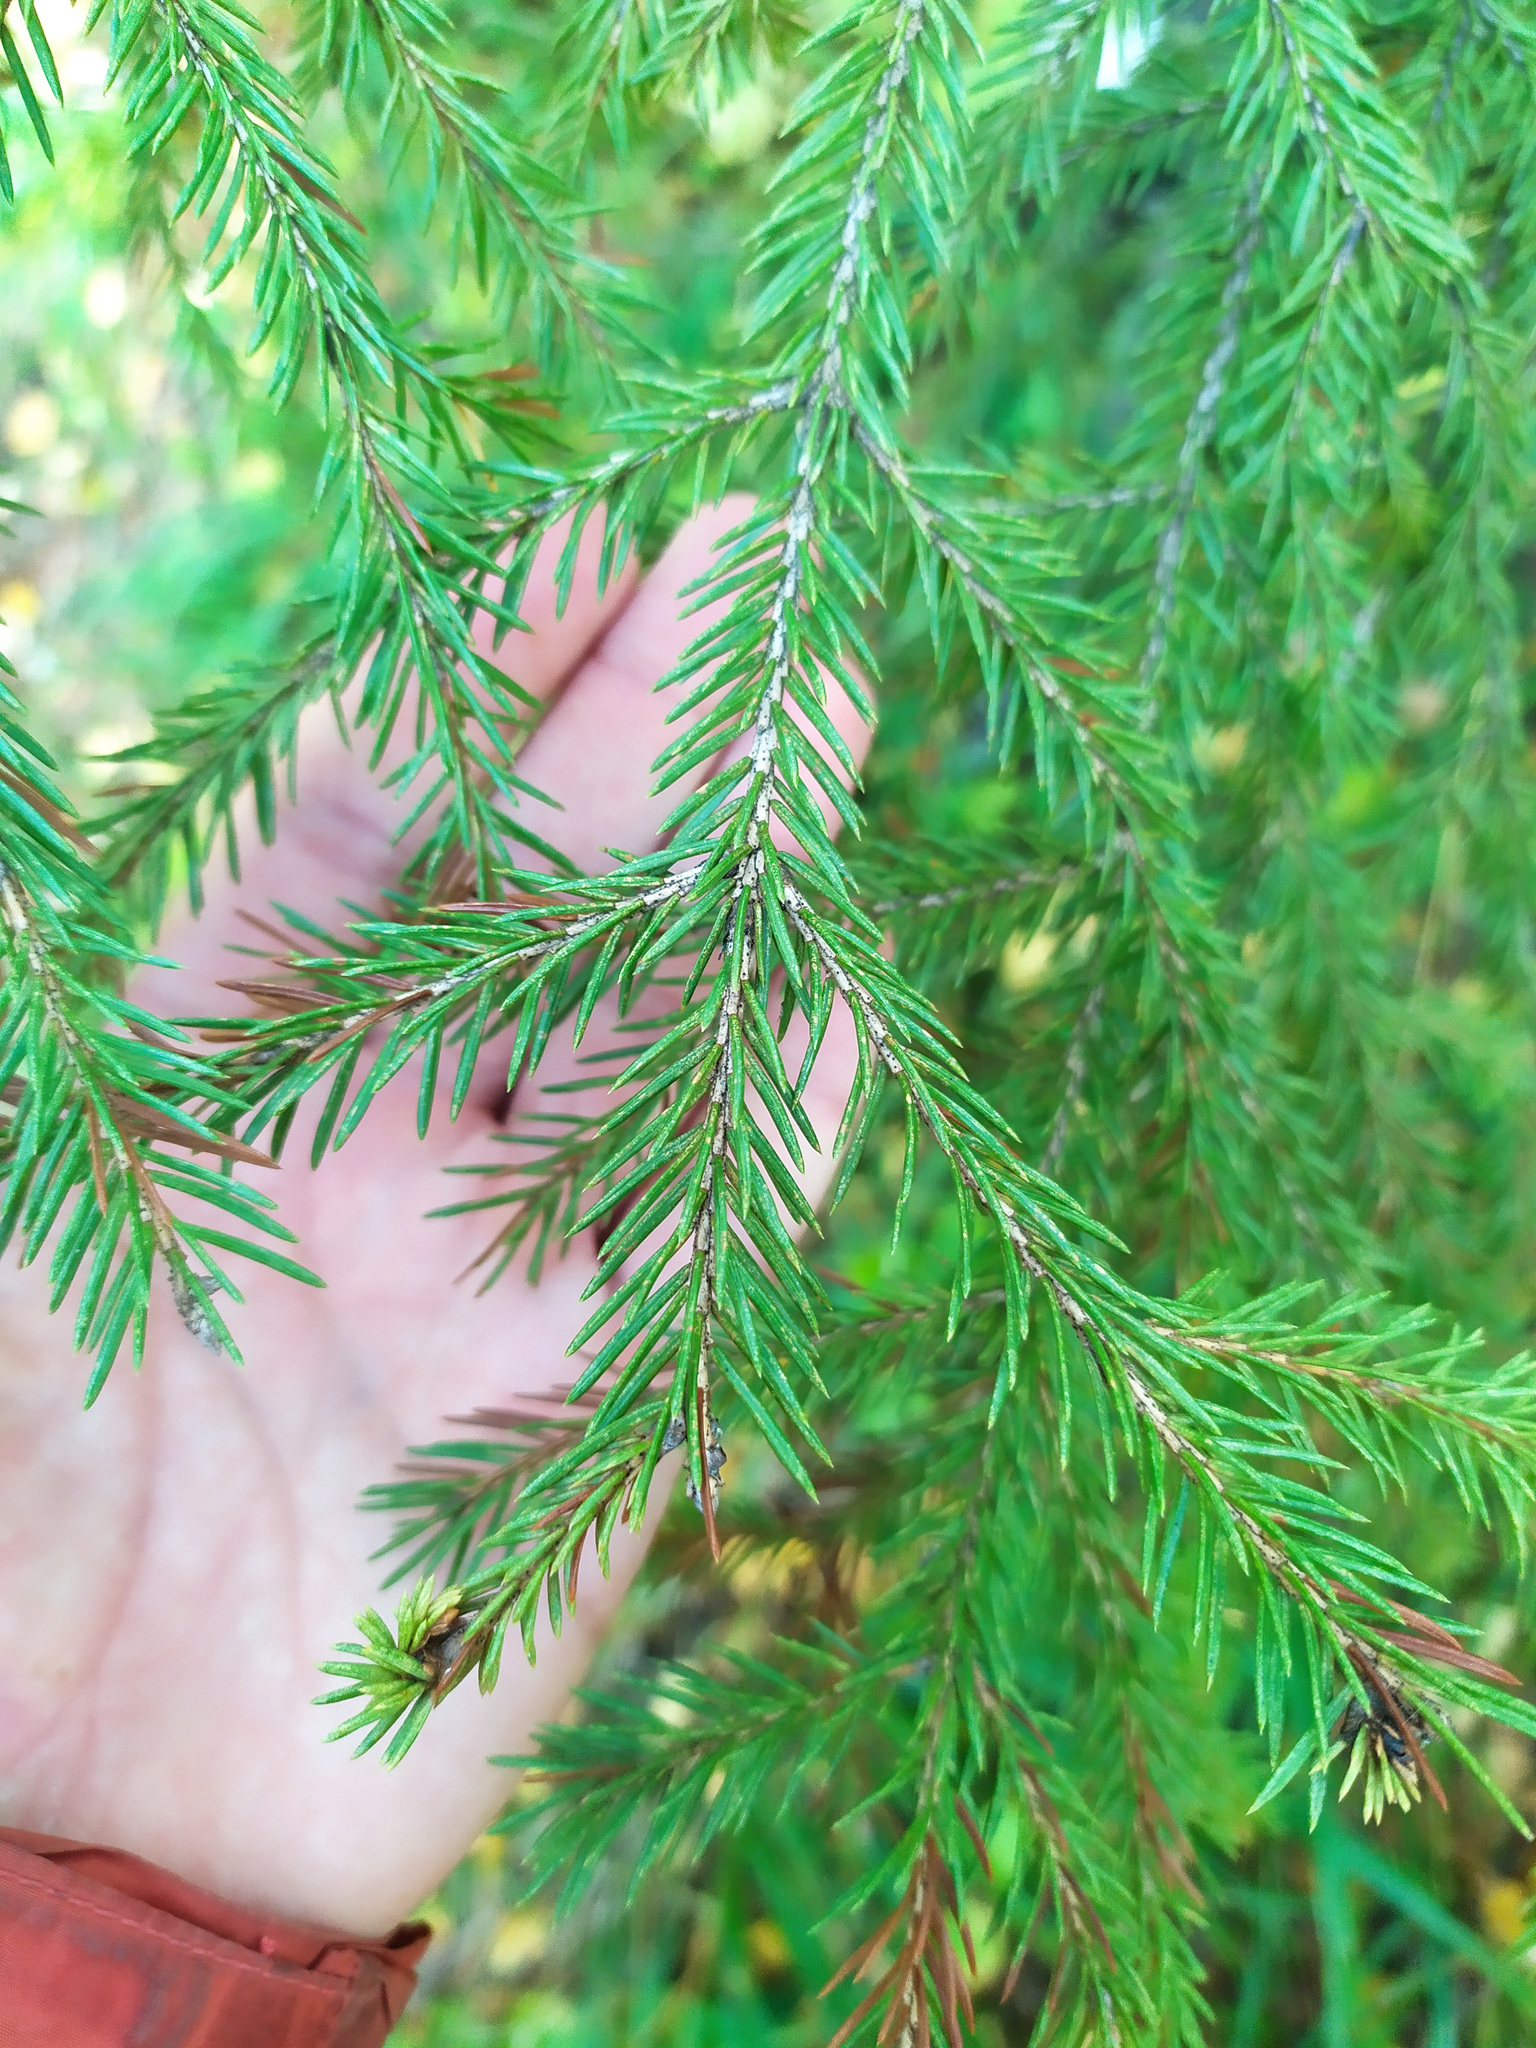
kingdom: Plantae
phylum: Tracheophyta
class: Pinopsida
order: Pinales
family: Pinaceae
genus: Picea
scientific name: Picea
